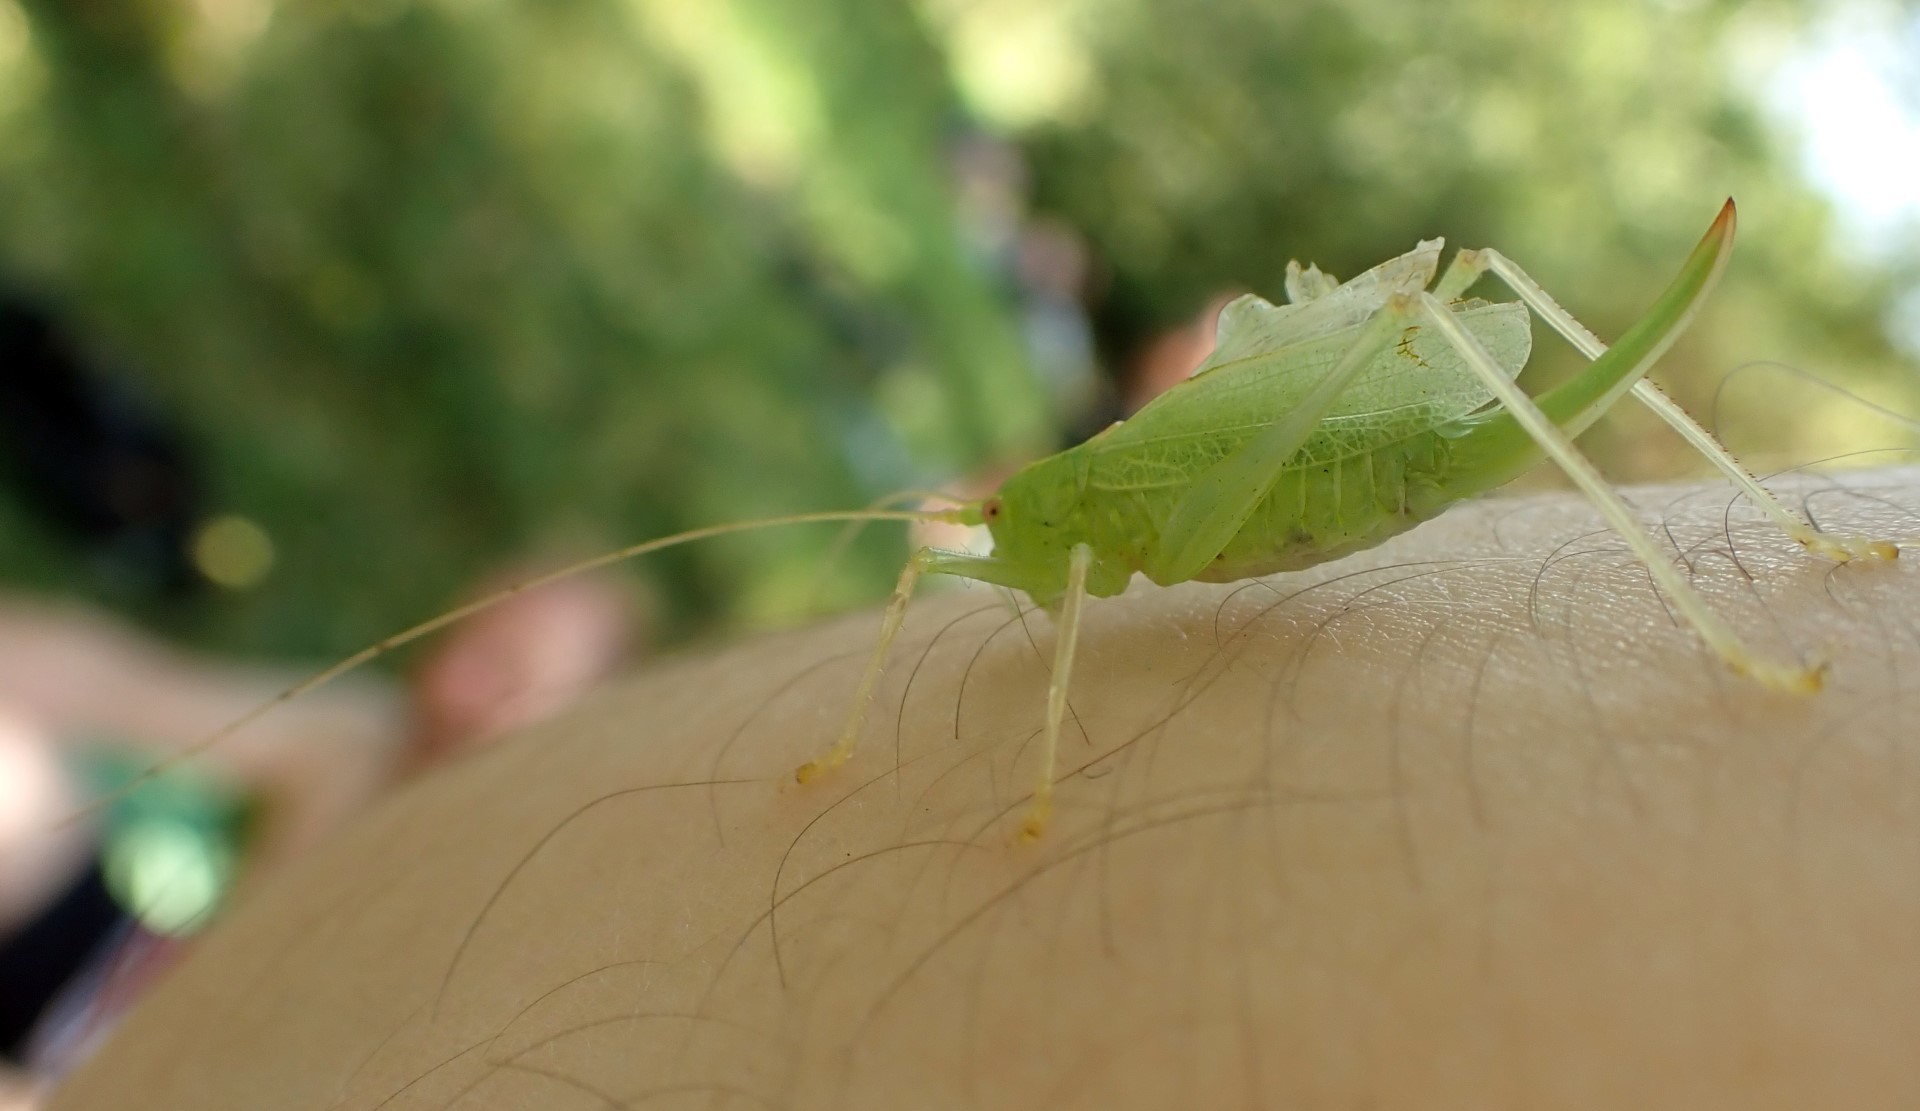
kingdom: Animalia
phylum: Arthropoda
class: Insecta
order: Orthoptera
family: Tettigoniidae
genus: Meconema
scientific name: Meconema thalassinum
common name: Oak bush-cricket
